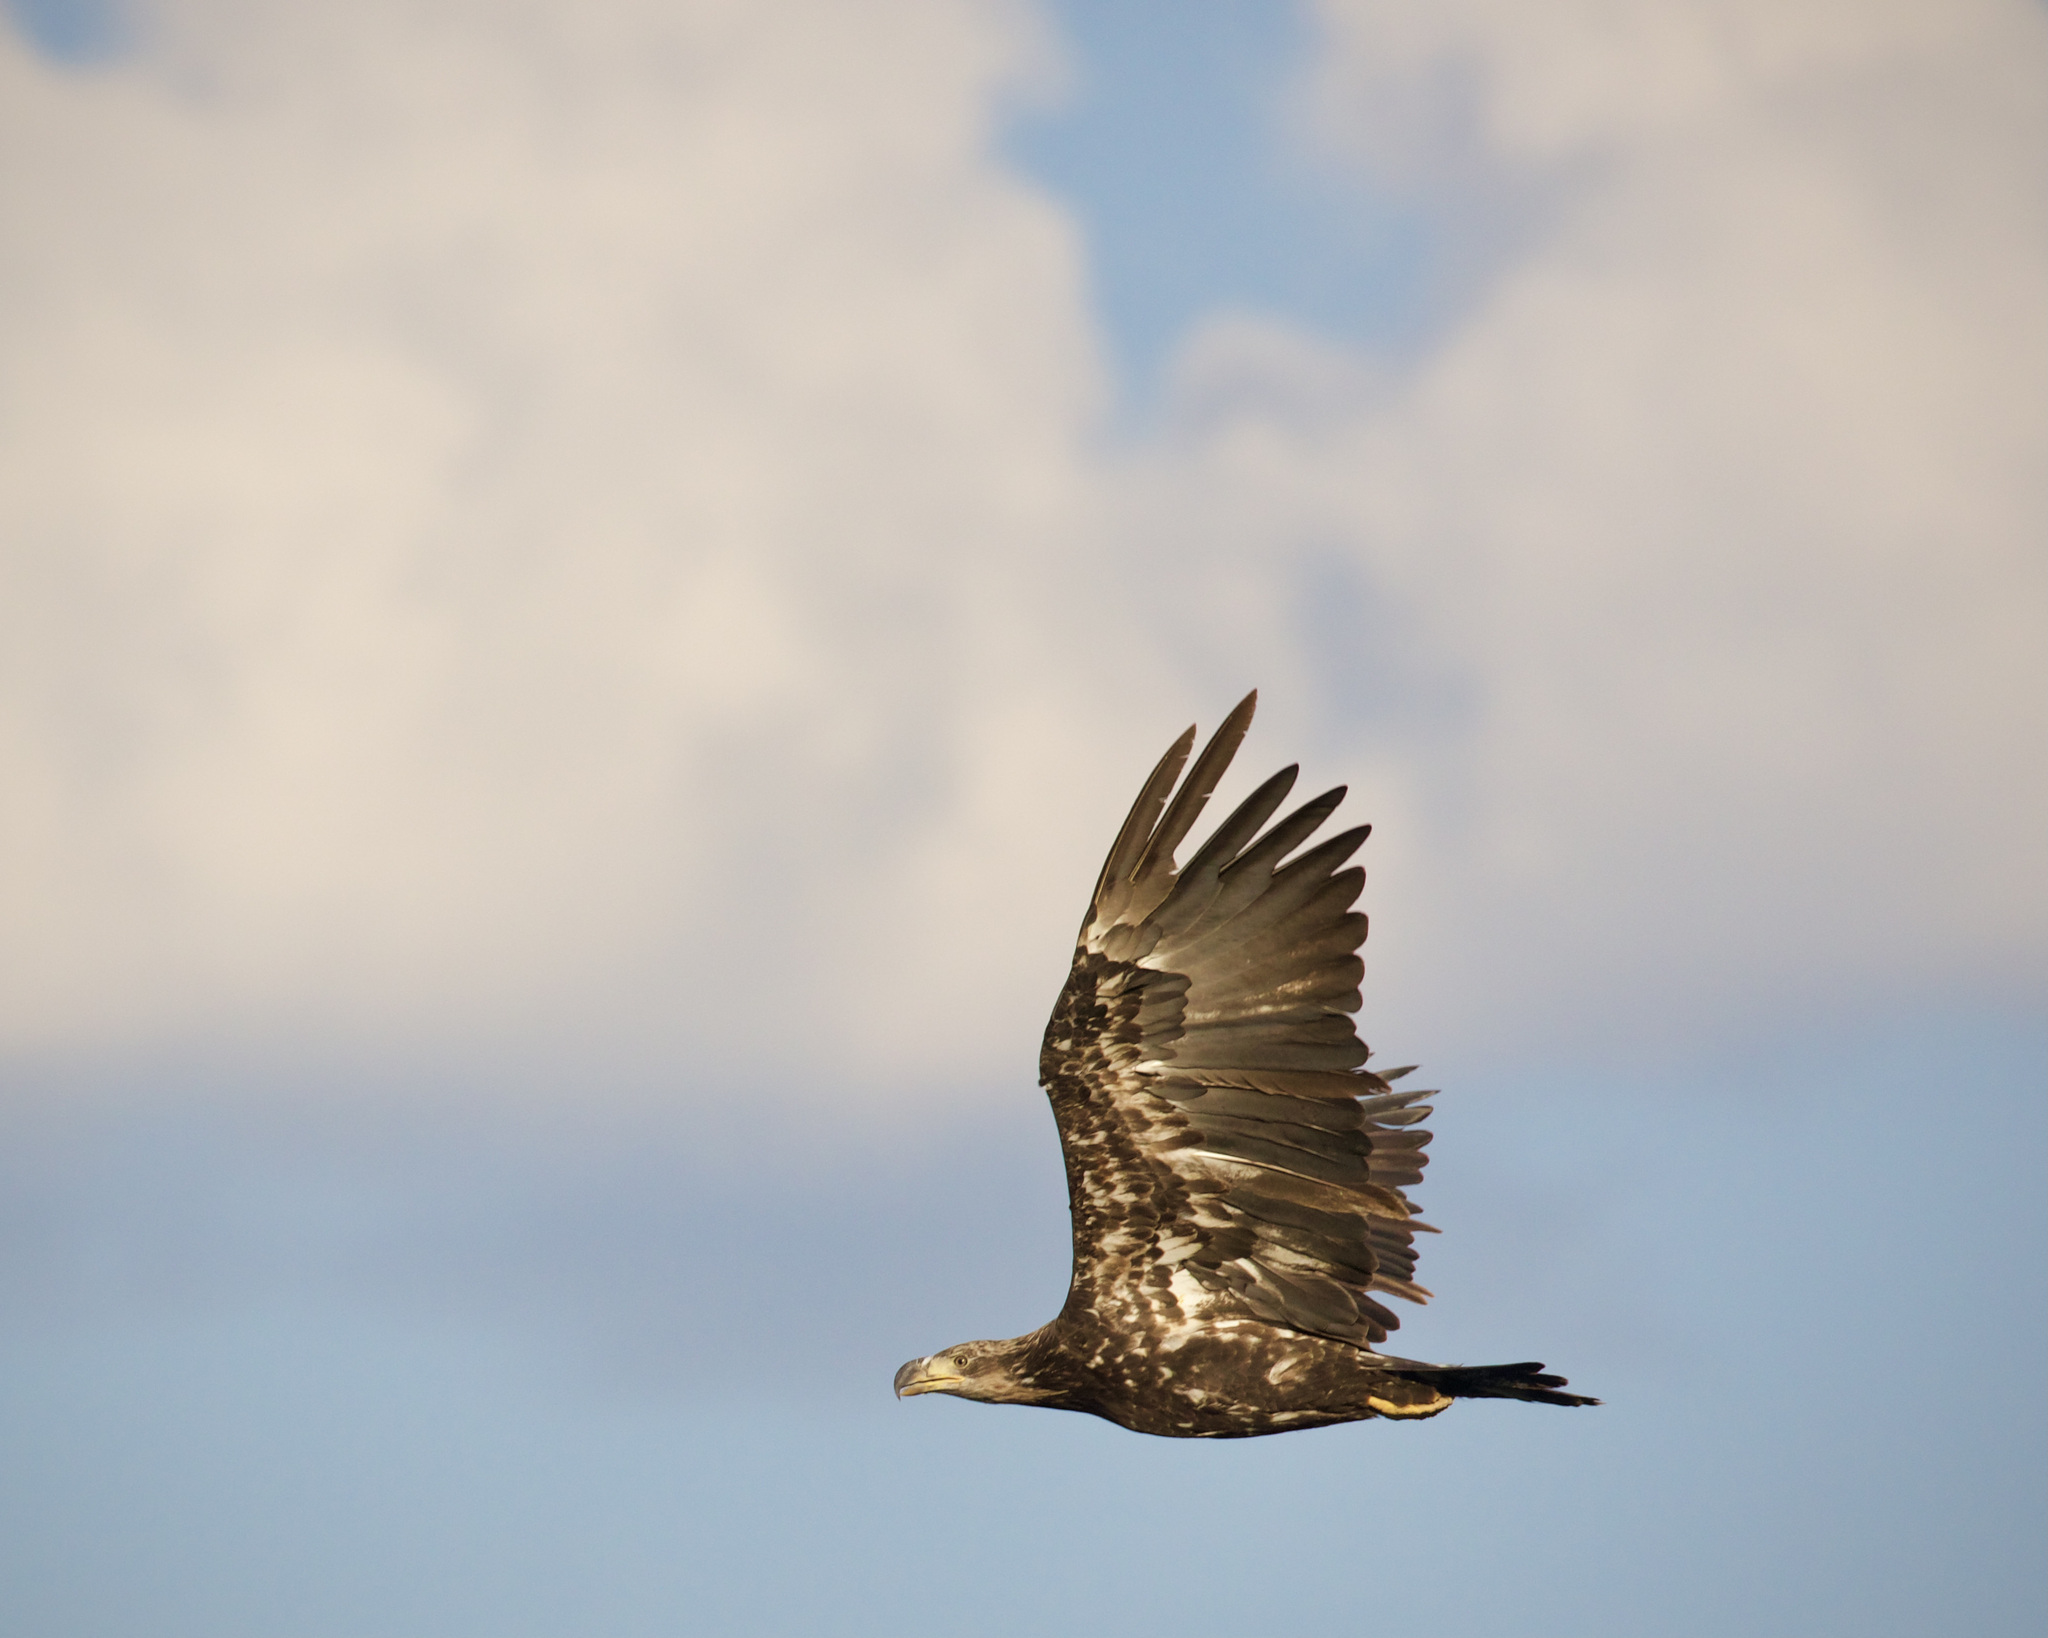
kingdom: Animalia
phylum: Chordata
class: Aves
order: Accipitriformes
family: Accipitridae
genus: Haliaeetus
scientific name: Haliaeetus leucocephalus
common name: Bald eagle
